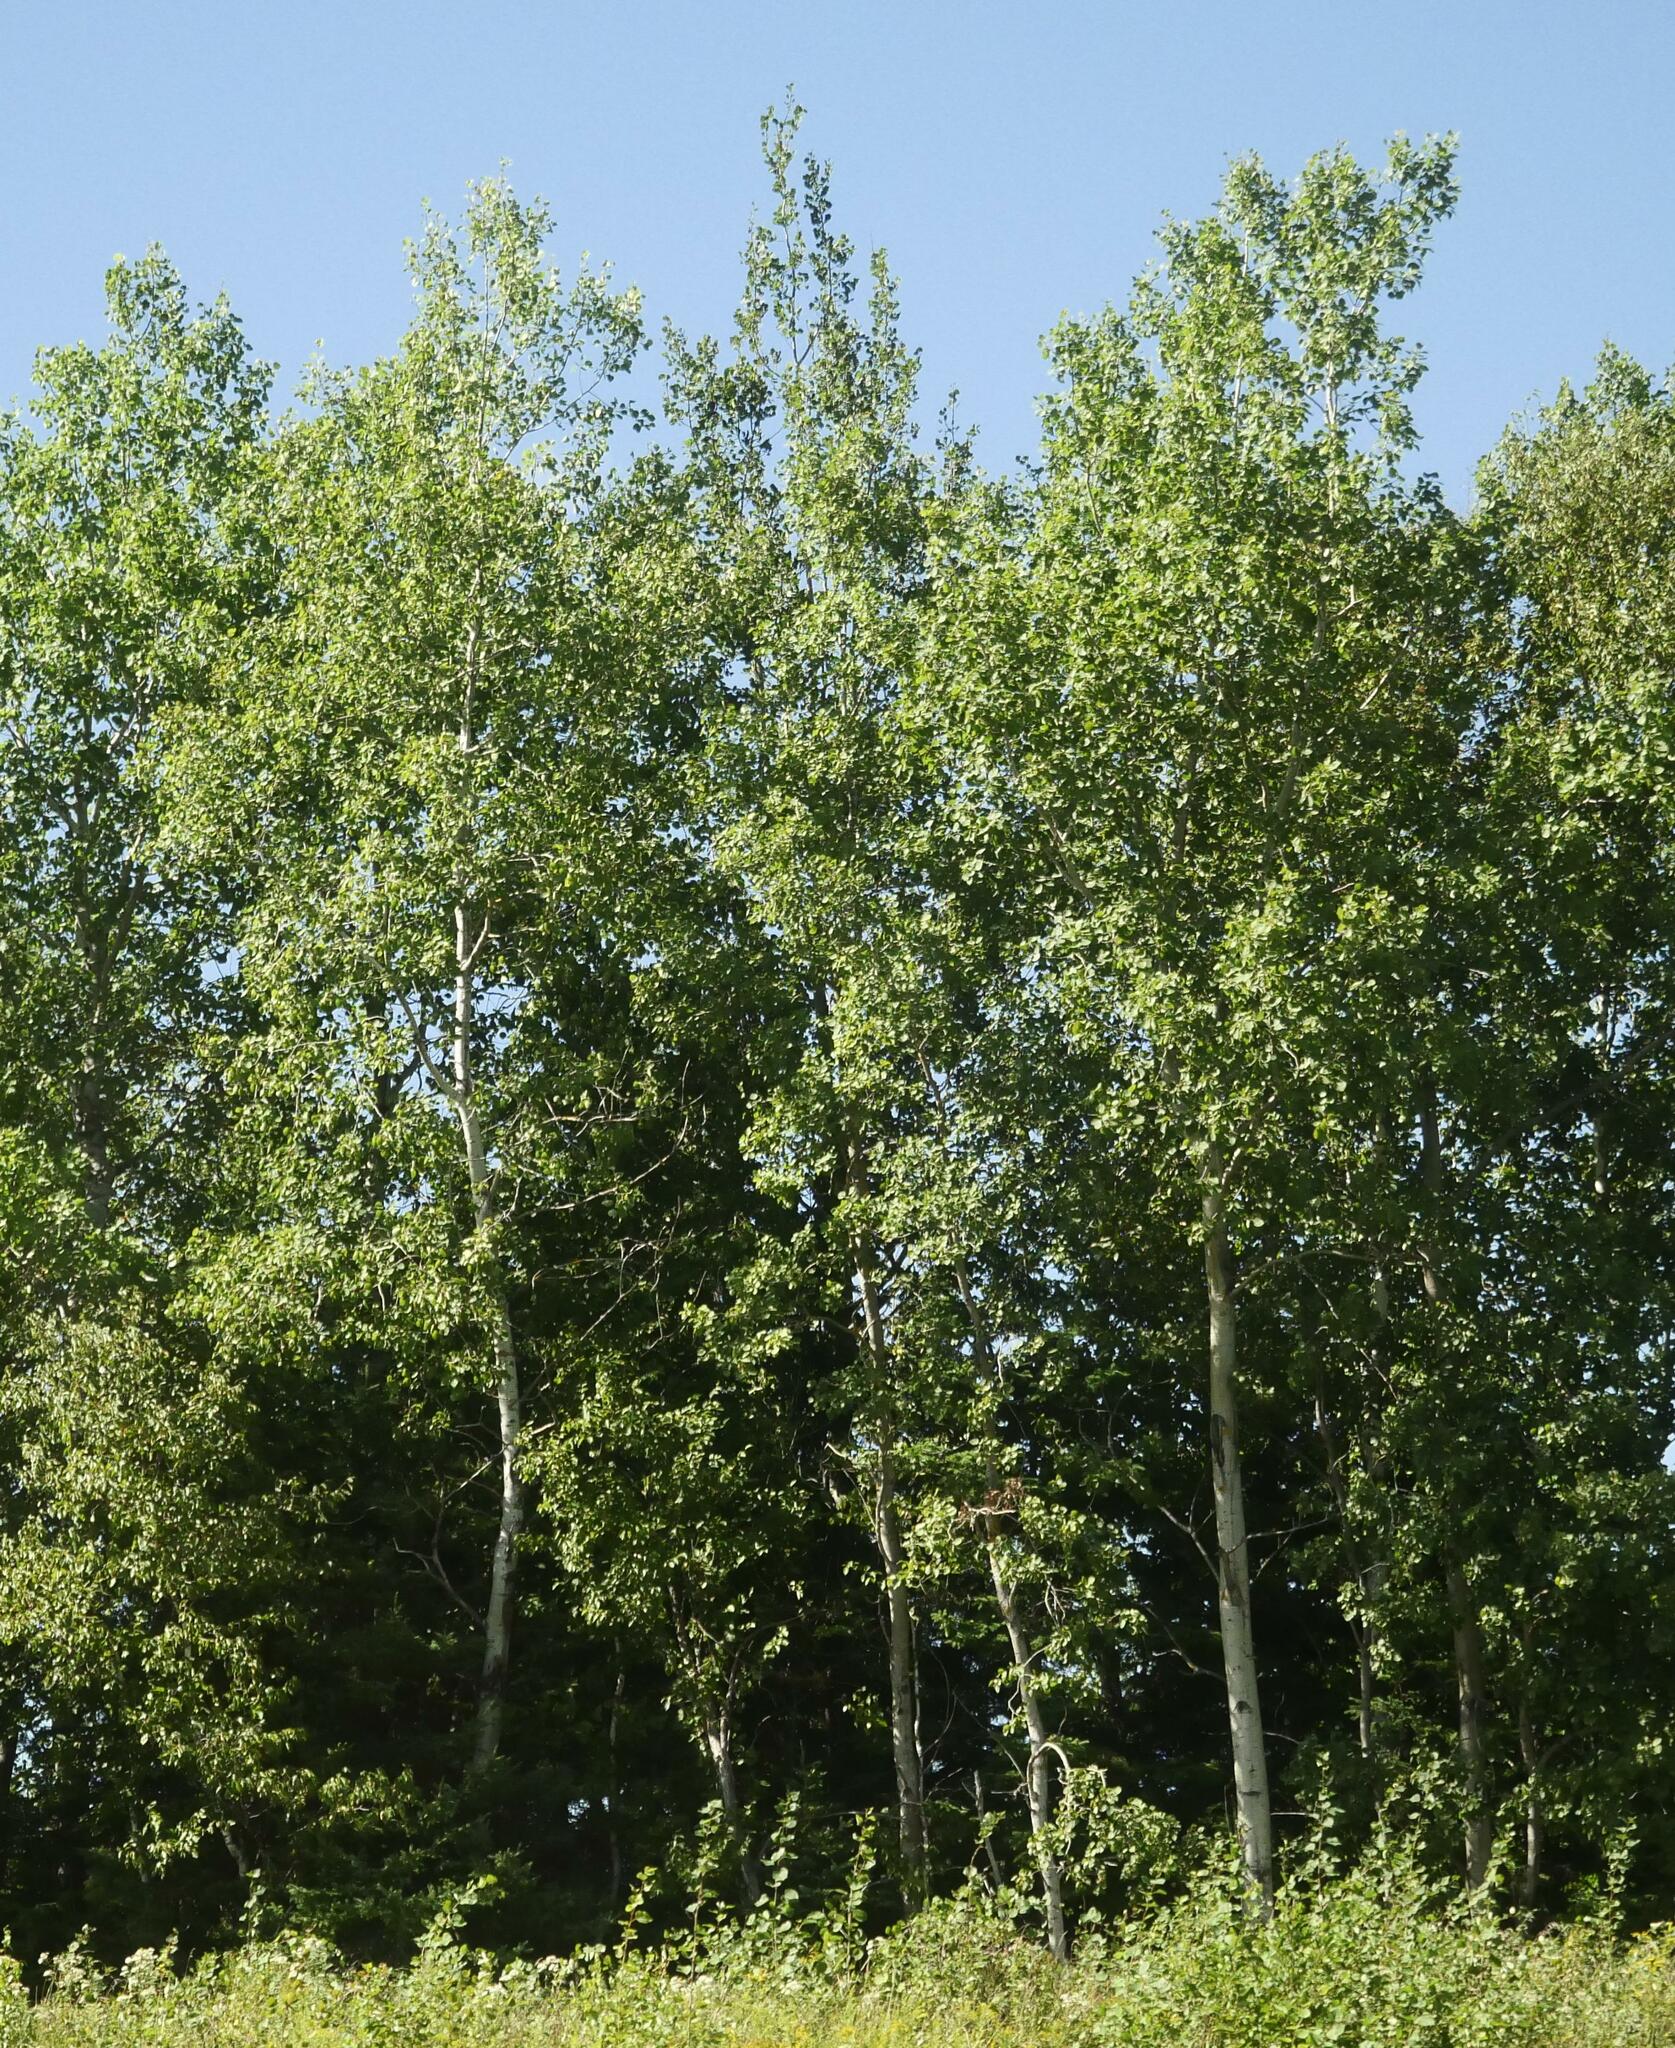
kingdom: Plantae
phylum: Tracheophyta
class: Magnoliopsida
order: Malpighiales
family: Salicaceae
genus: Populus
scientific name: Populus tremuloides
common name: Quaking aspen
